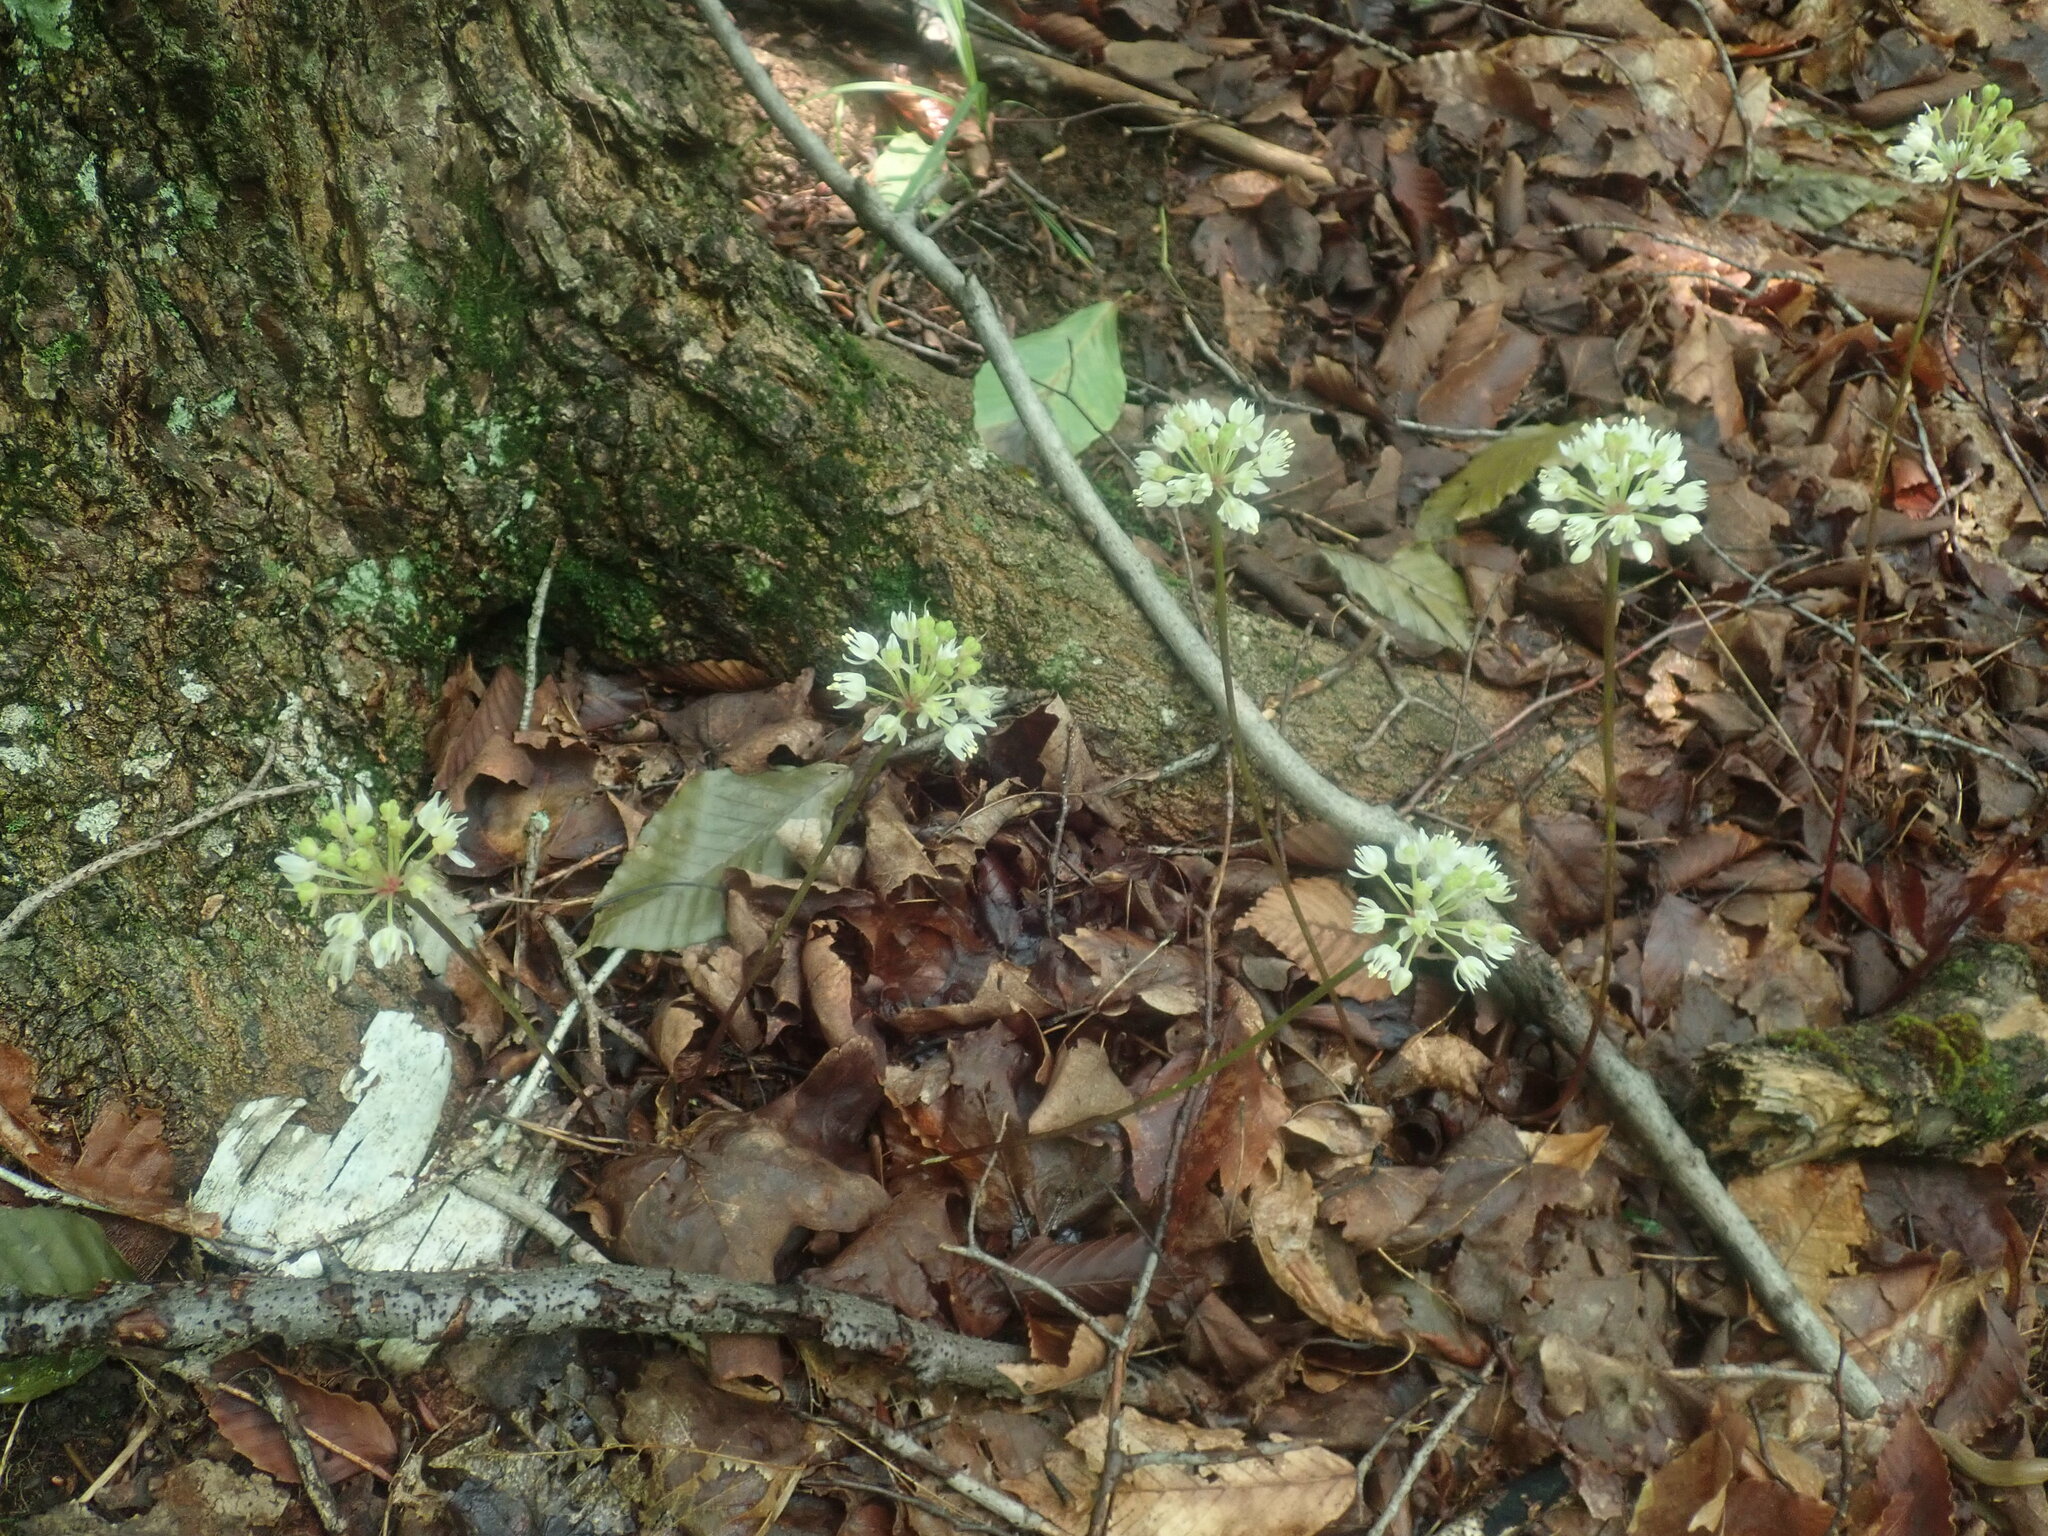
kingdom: Plantae
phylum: Tracheophyta
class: Liliopsida
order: Asparagales
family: Amaryllidaceae
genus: Allium
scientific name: Allium tricoccum
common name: Ramp
